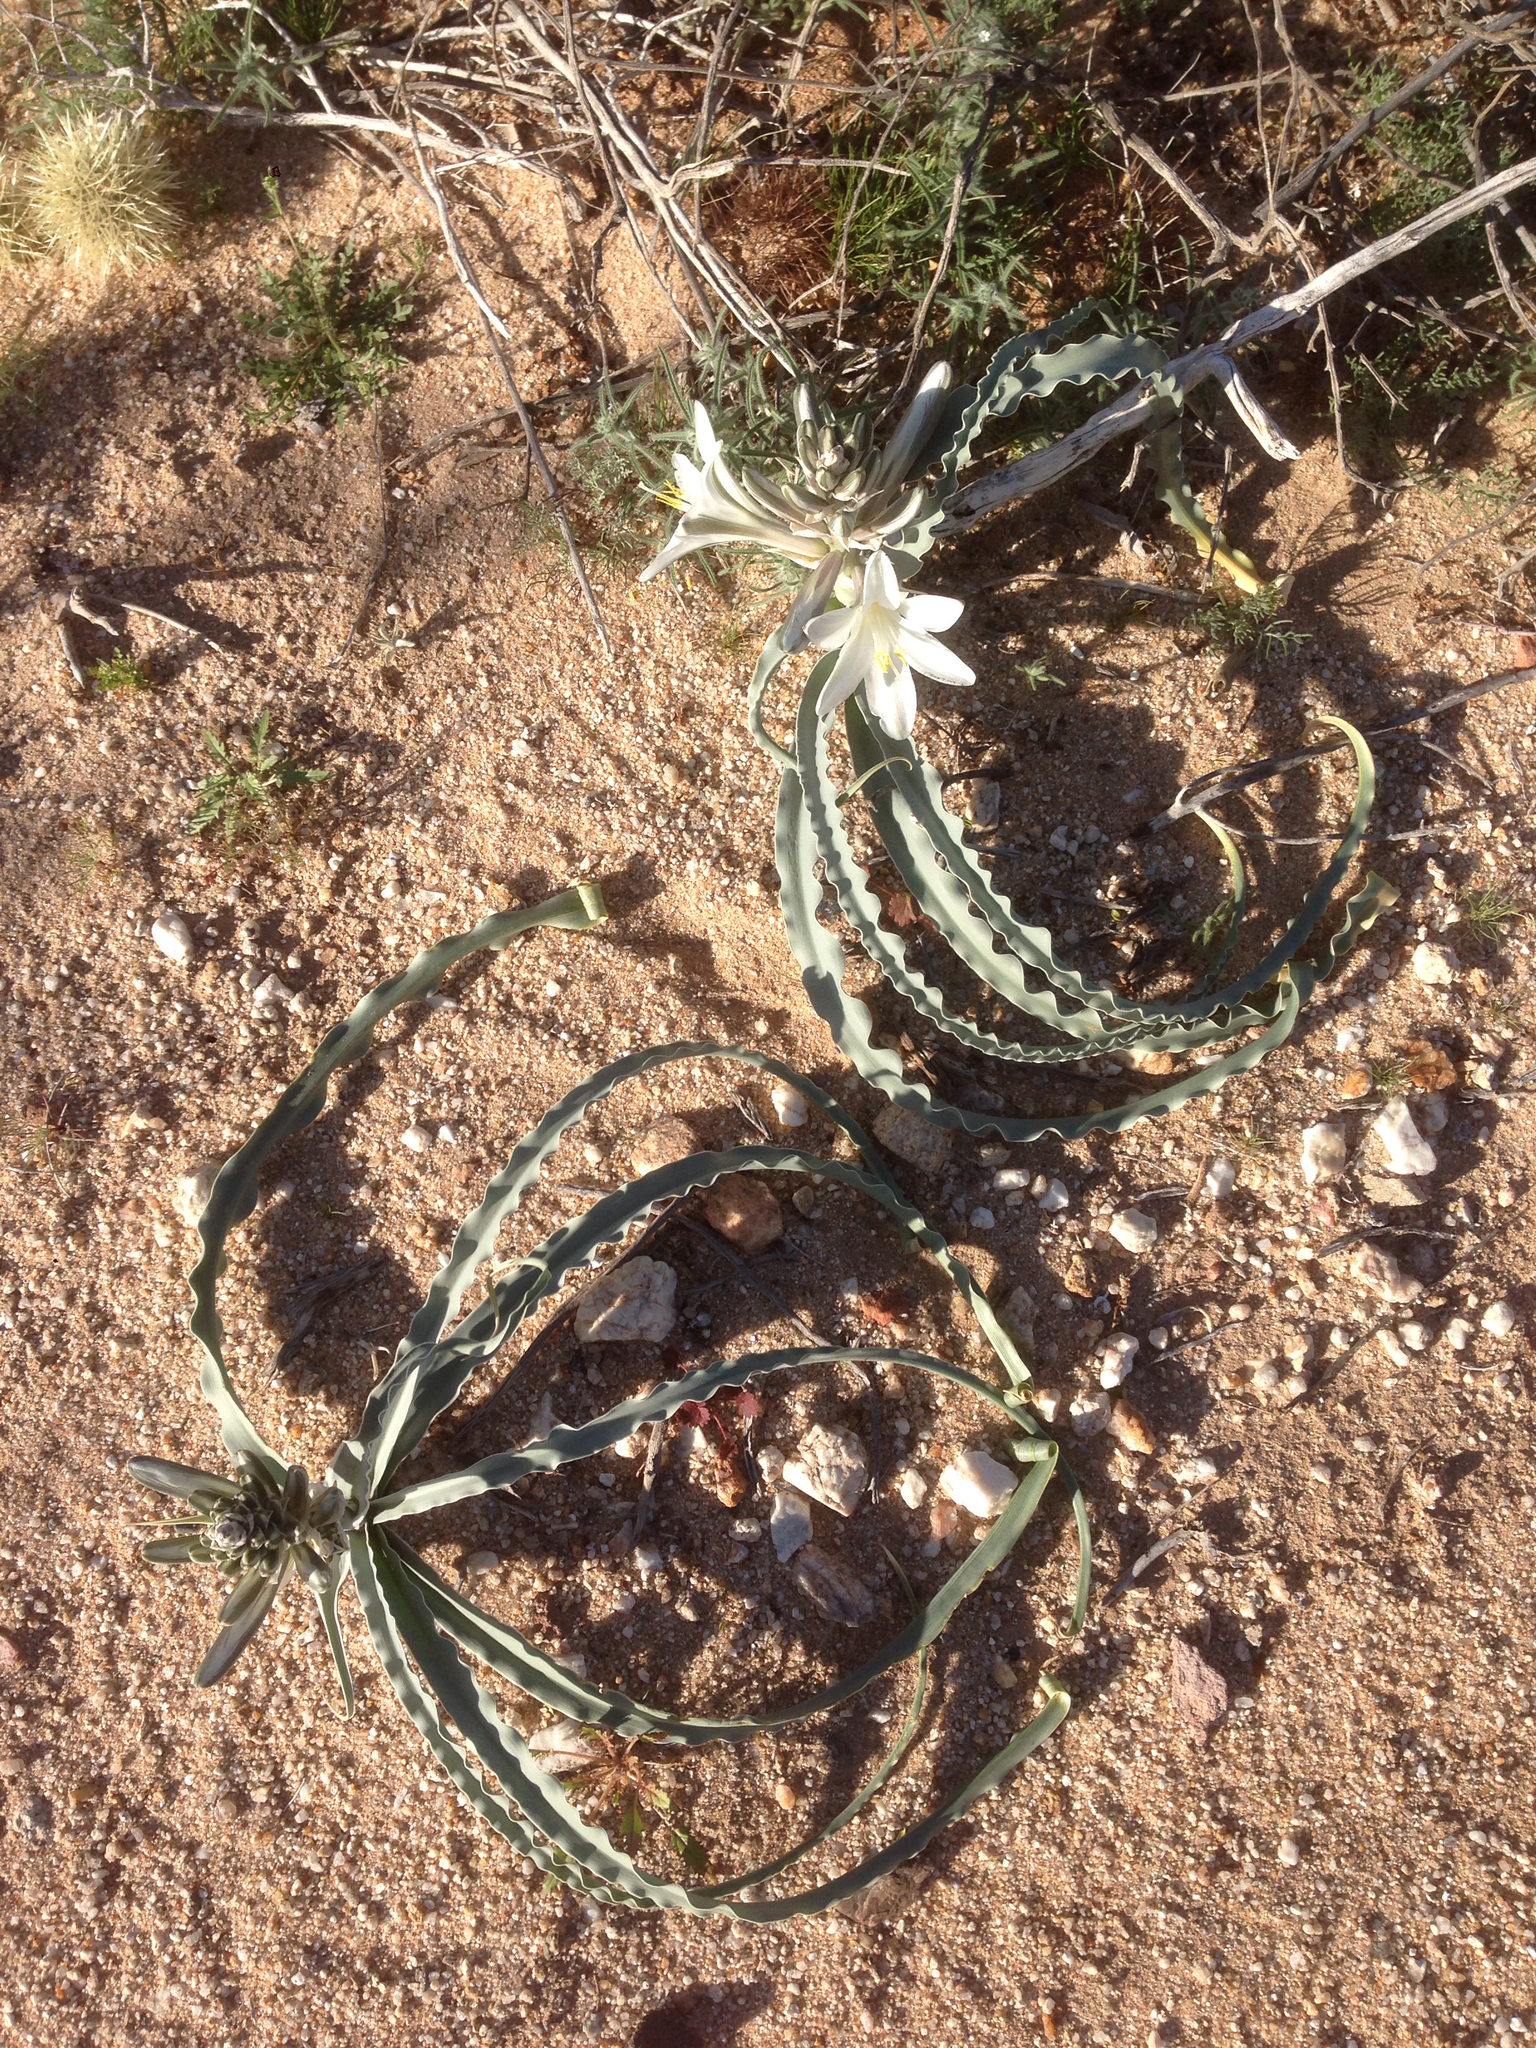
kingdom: Plantae
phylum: Tracheophyta
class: Liliopsida
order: Asparagales
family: Asparagaceae
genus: Hesperocallis
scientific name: Hesperocallis undulata
